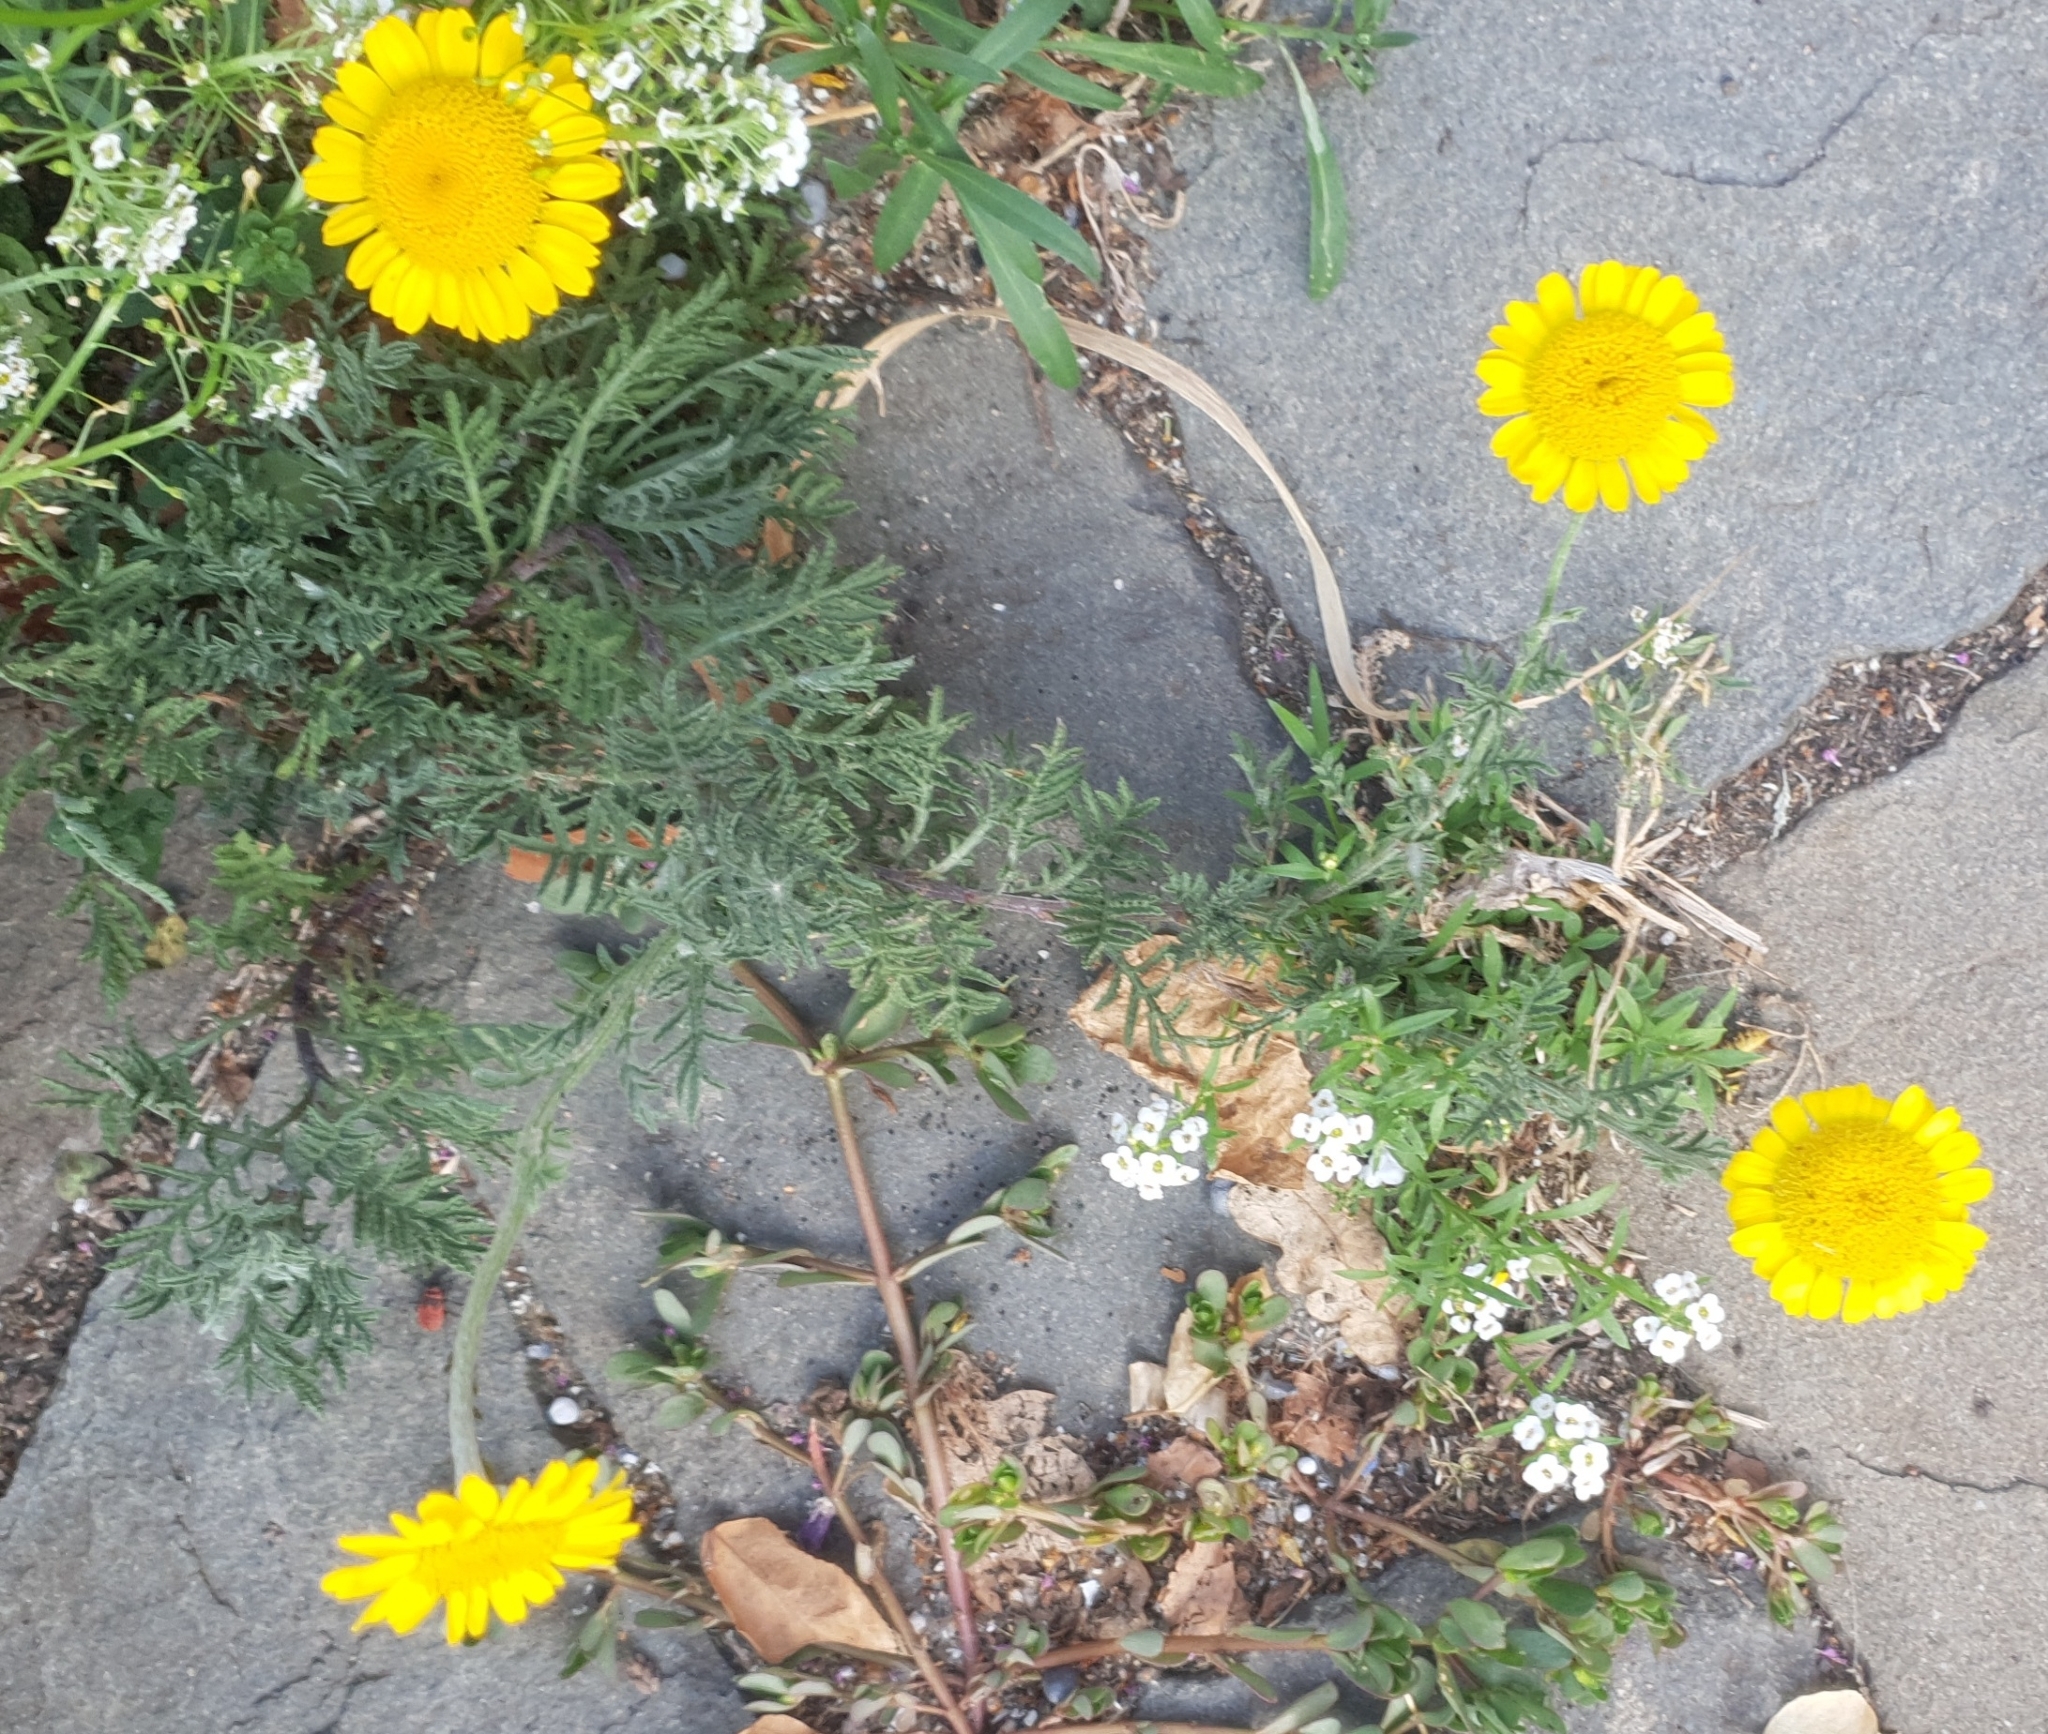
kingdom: Plantae
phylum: Tracheophyta
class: Magnoliopsida
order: Asterales
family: Asteraceae
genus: Cota
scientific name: Cota tinctoria
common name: Golden chamomile
